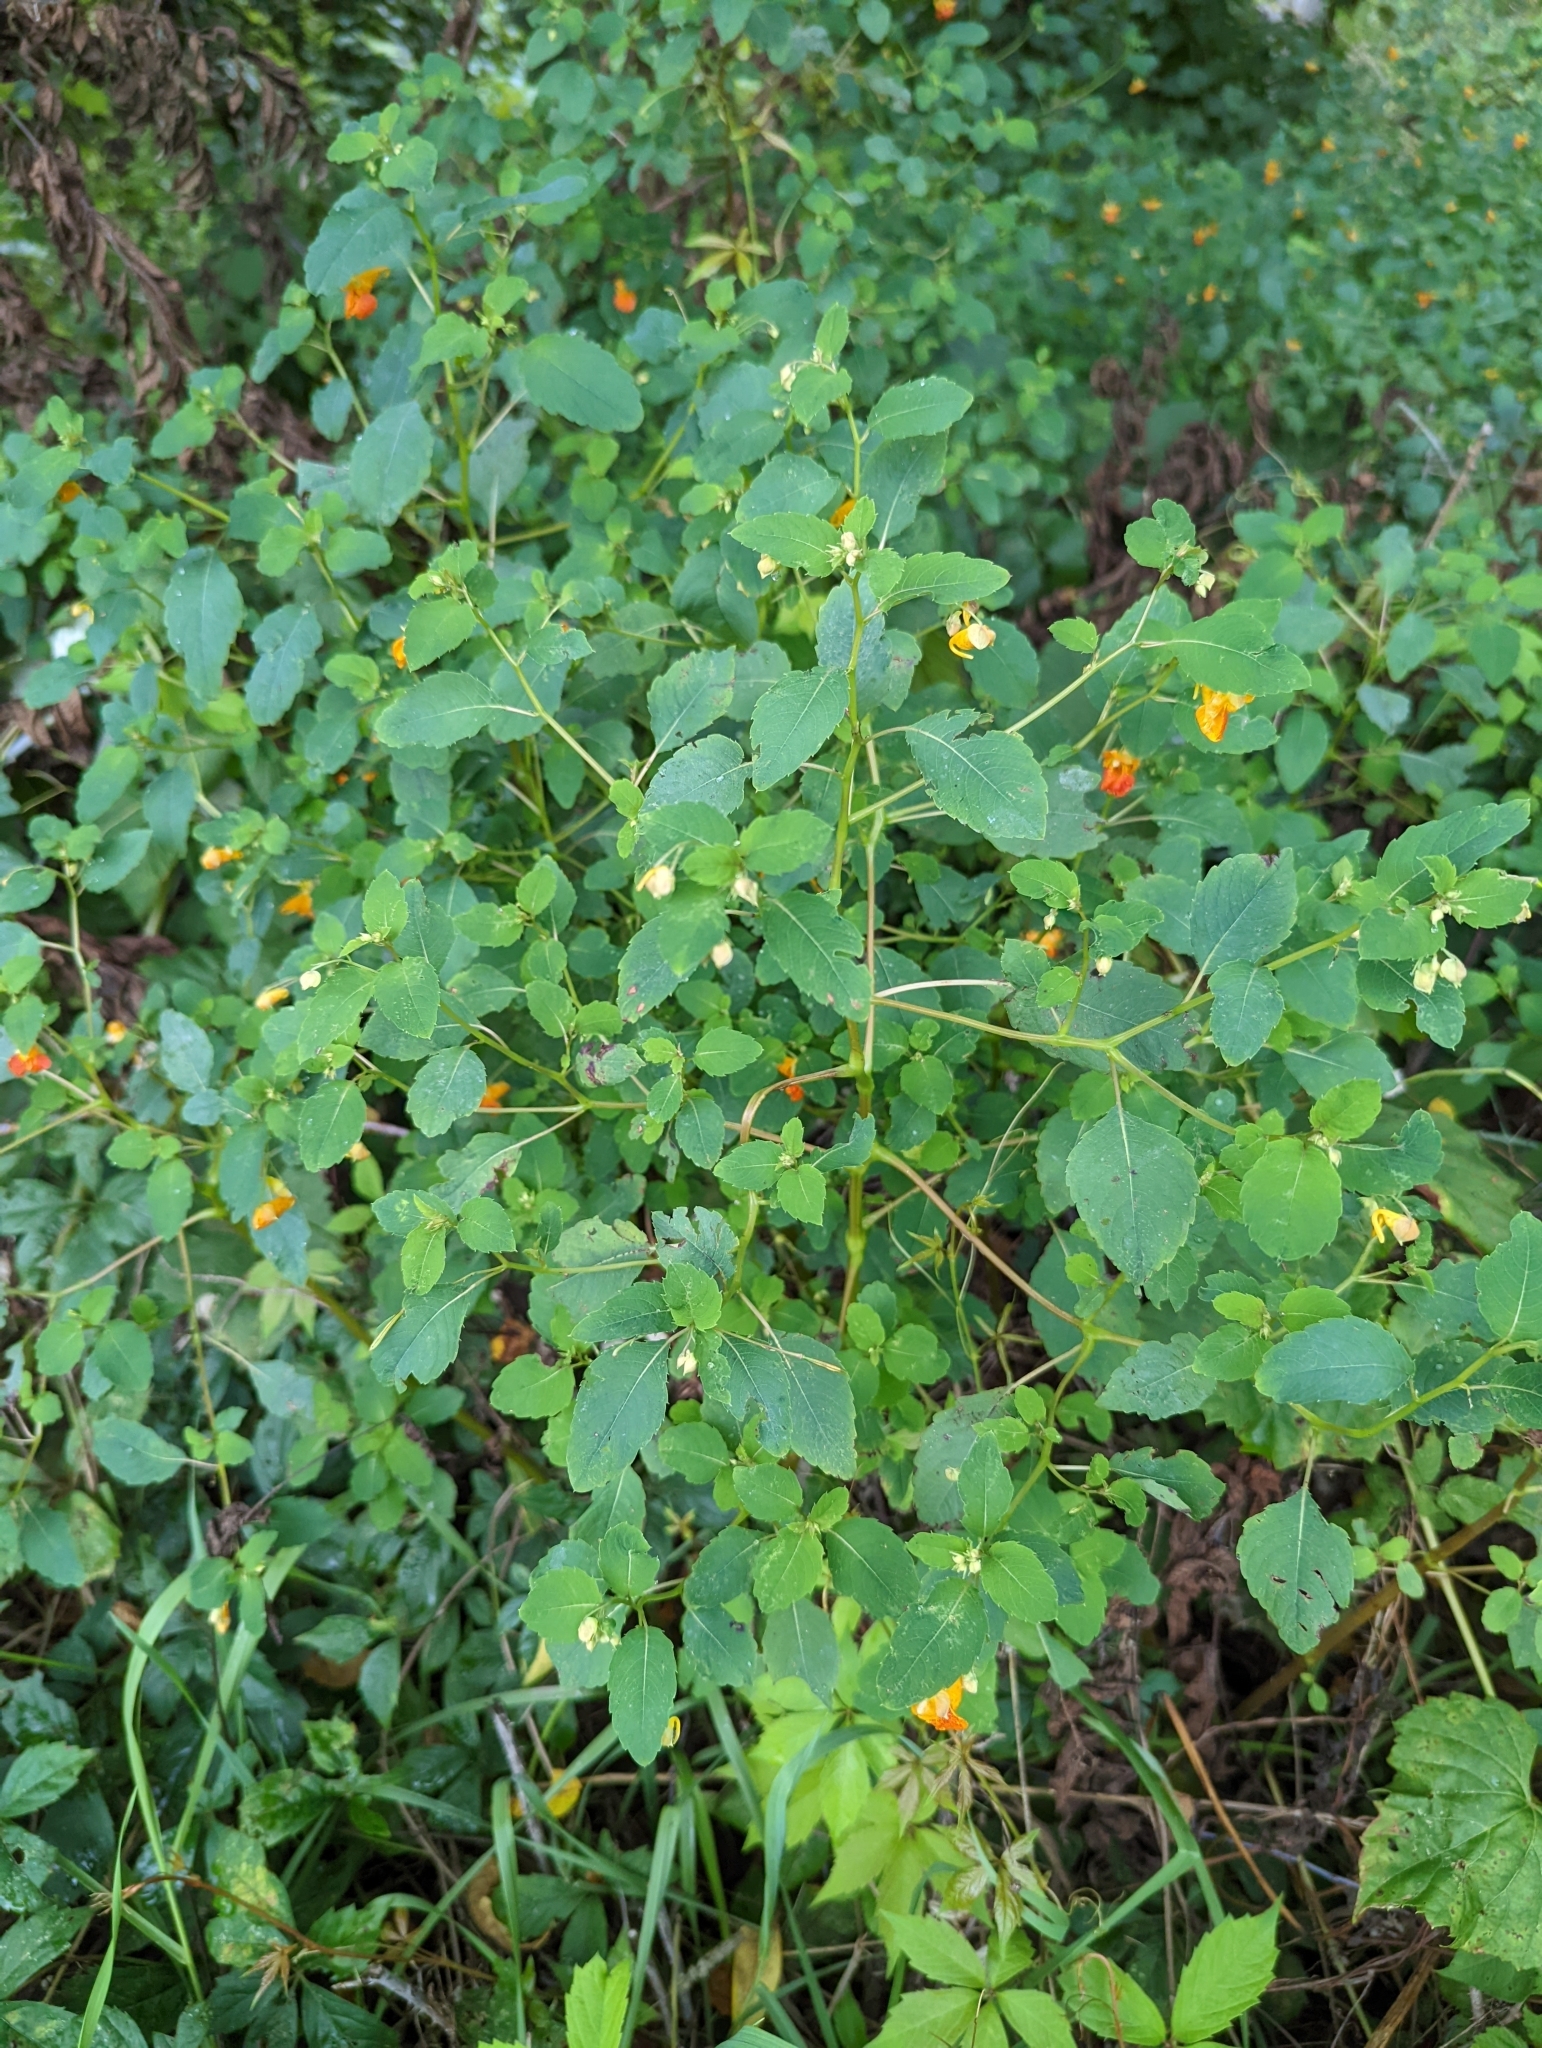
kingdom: Plantae
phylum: Tracheophyta
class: Magnoliopsida
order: Ericales
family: Balsaminaceae
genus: Impatiens
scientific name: Impatiens capensis
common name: Orange balsam
